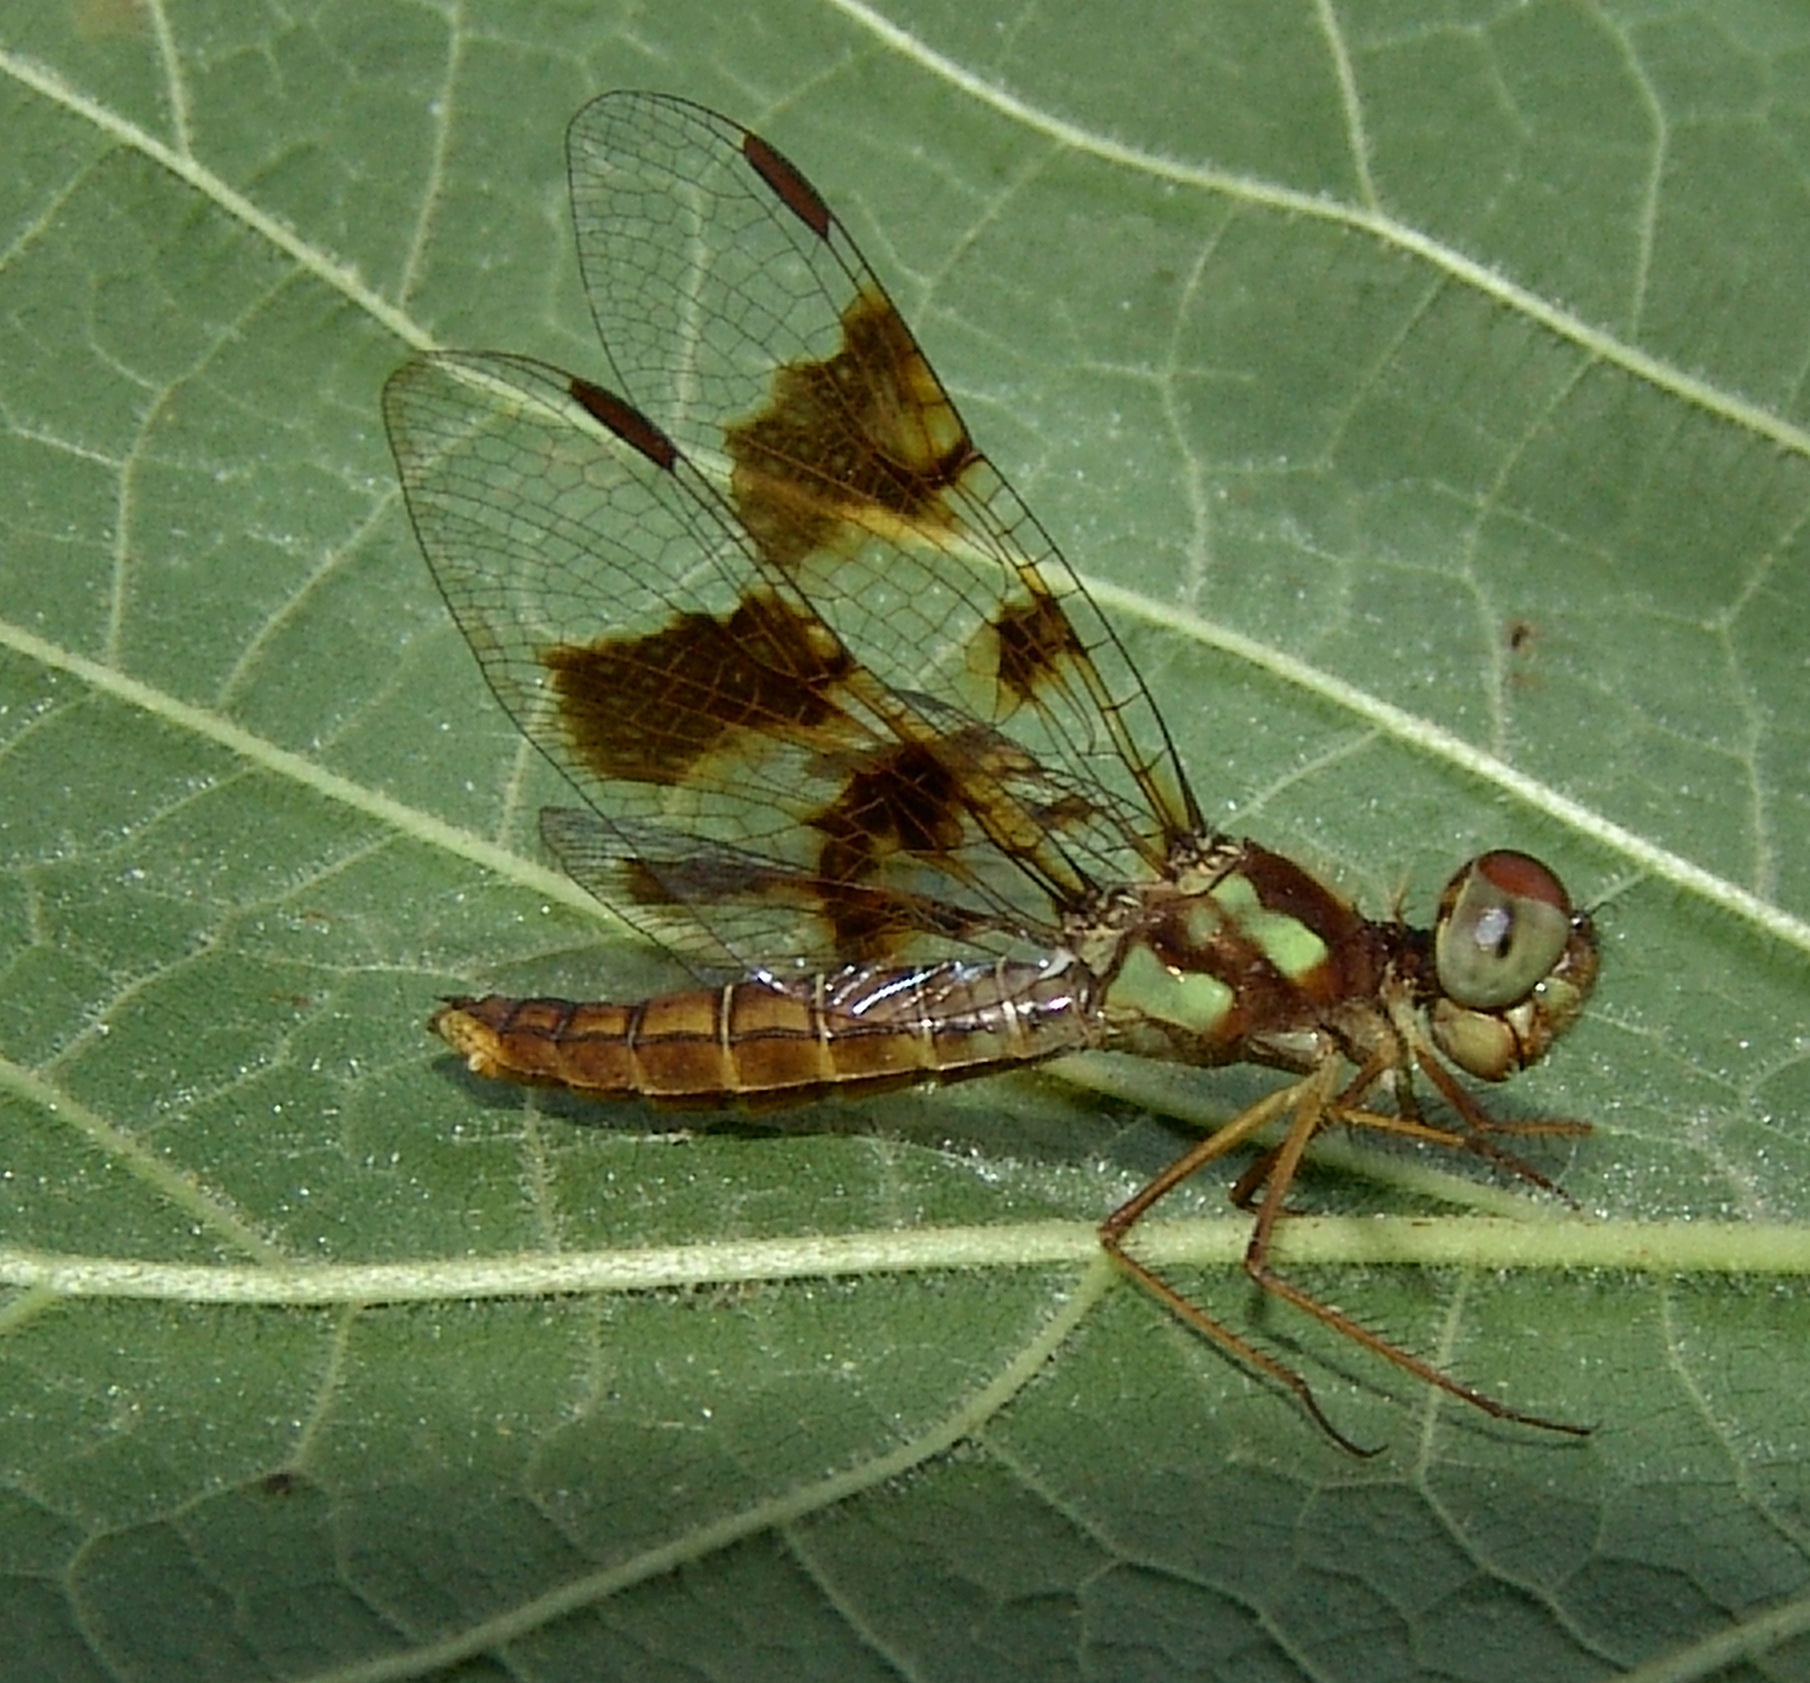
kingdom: Animalia
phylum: Arthropoda
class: Insecta
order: Odonata
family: Libellulidae
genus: Perithemis
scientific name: Perithemis tenera
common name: Eastern amberwing
